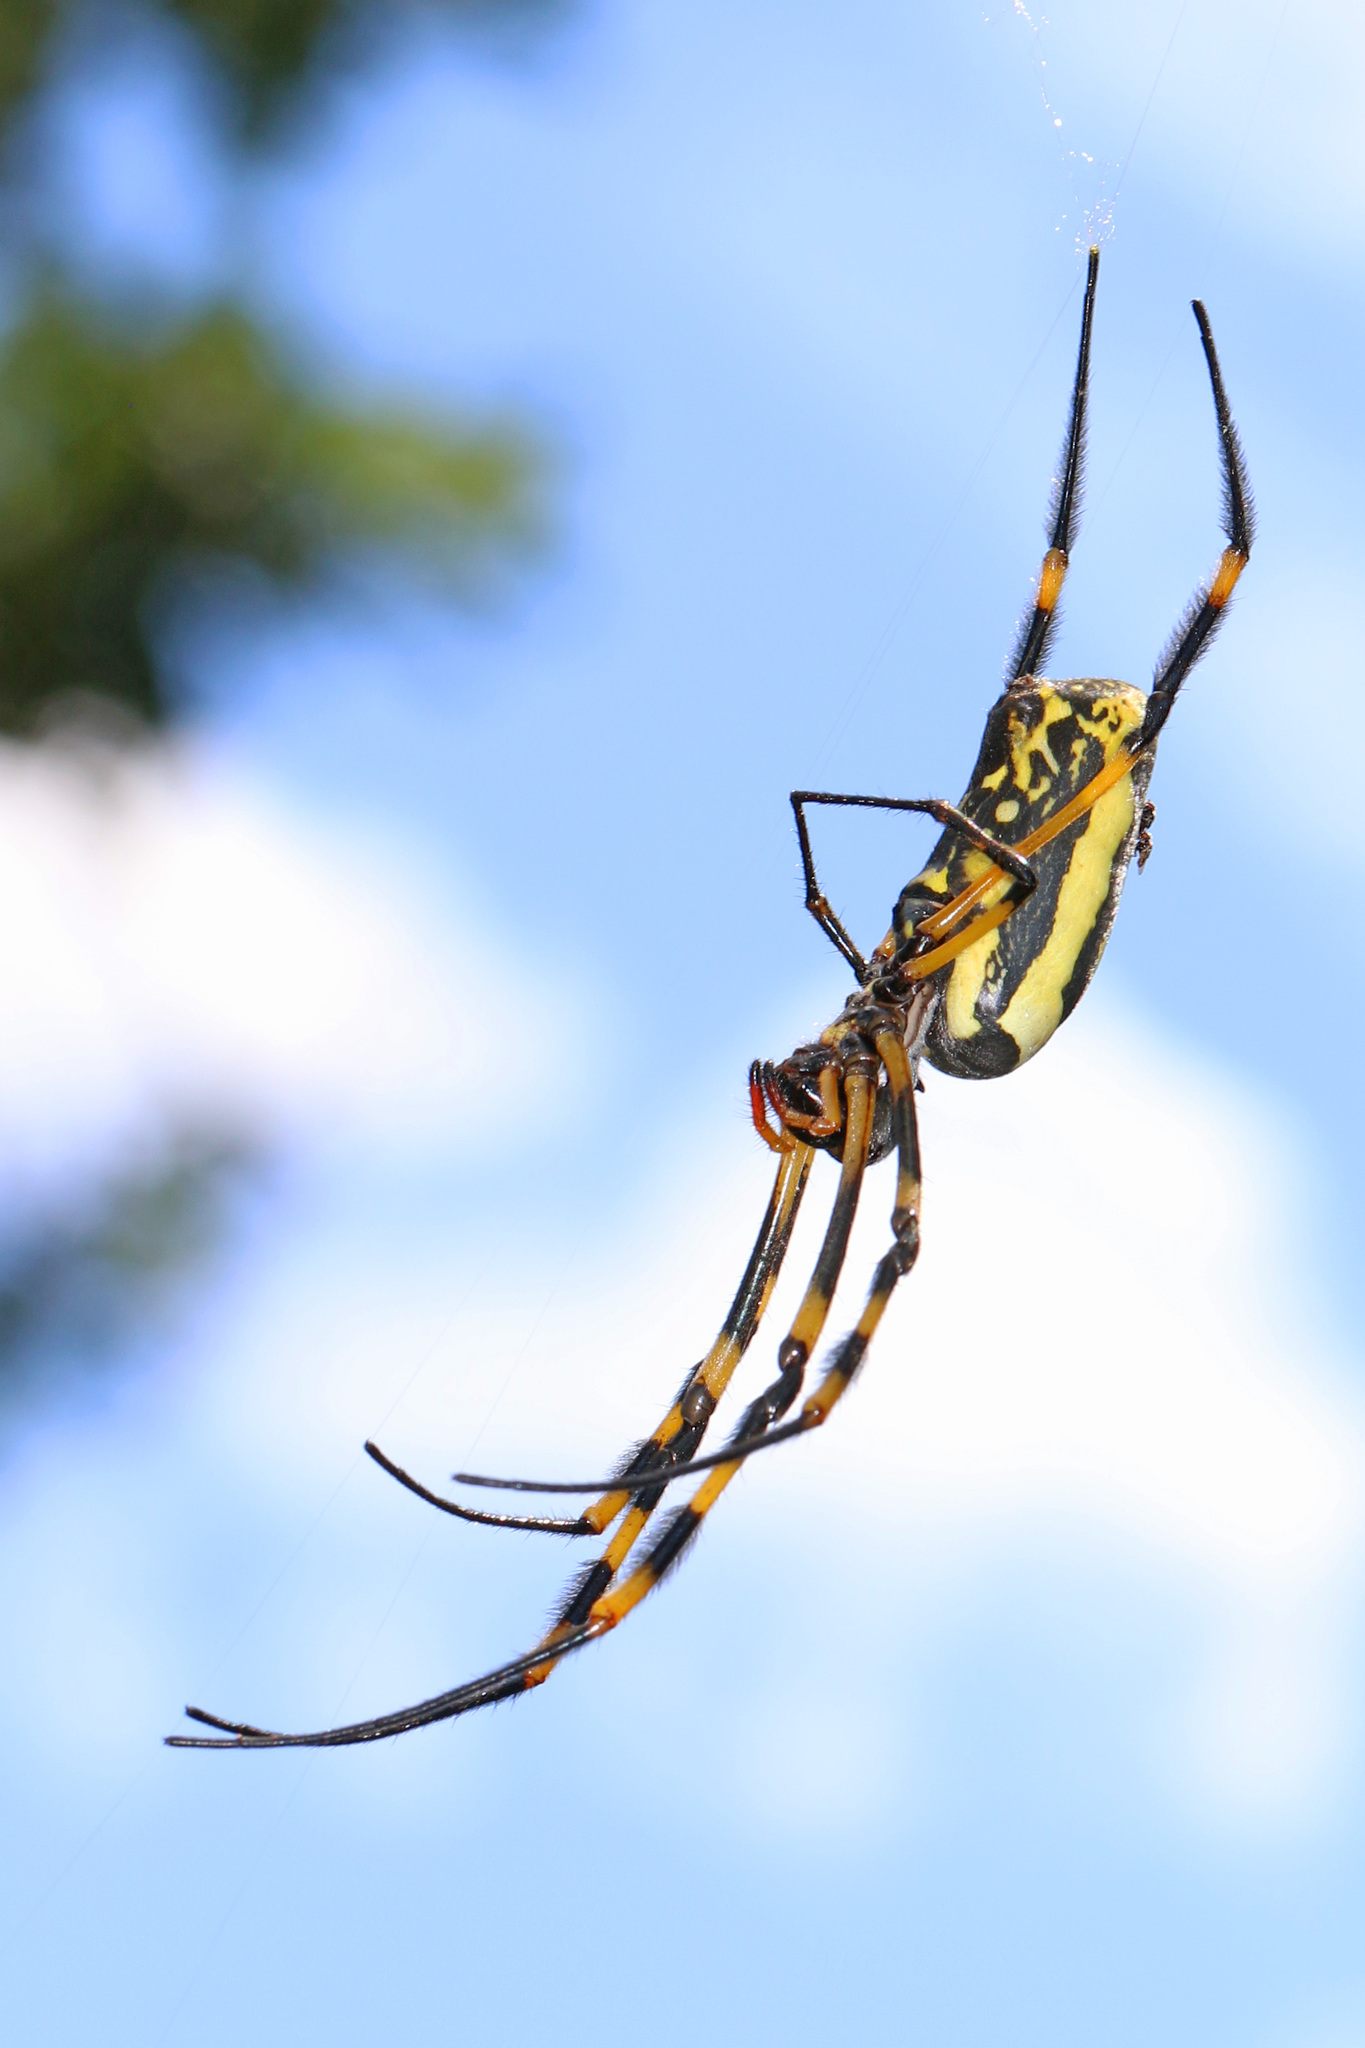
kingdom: Animalia
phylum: Arthropoda
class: Arachnida
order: Araneae
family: Araneidae
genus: Trichonephila
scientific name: Trichonephila senegalensis
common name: Banded golden orb weaver
